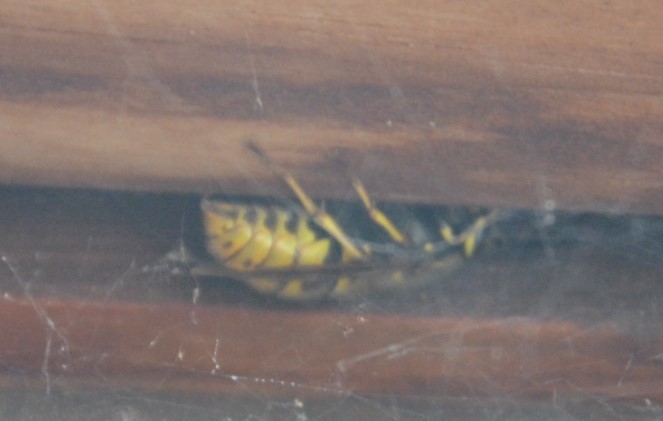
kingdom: Animalia
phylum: Arthropoda
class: Insecta
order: Hymenoptera
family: Vespidae
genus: Vespula
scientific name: Vespula vulgaris
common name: Common wasp
